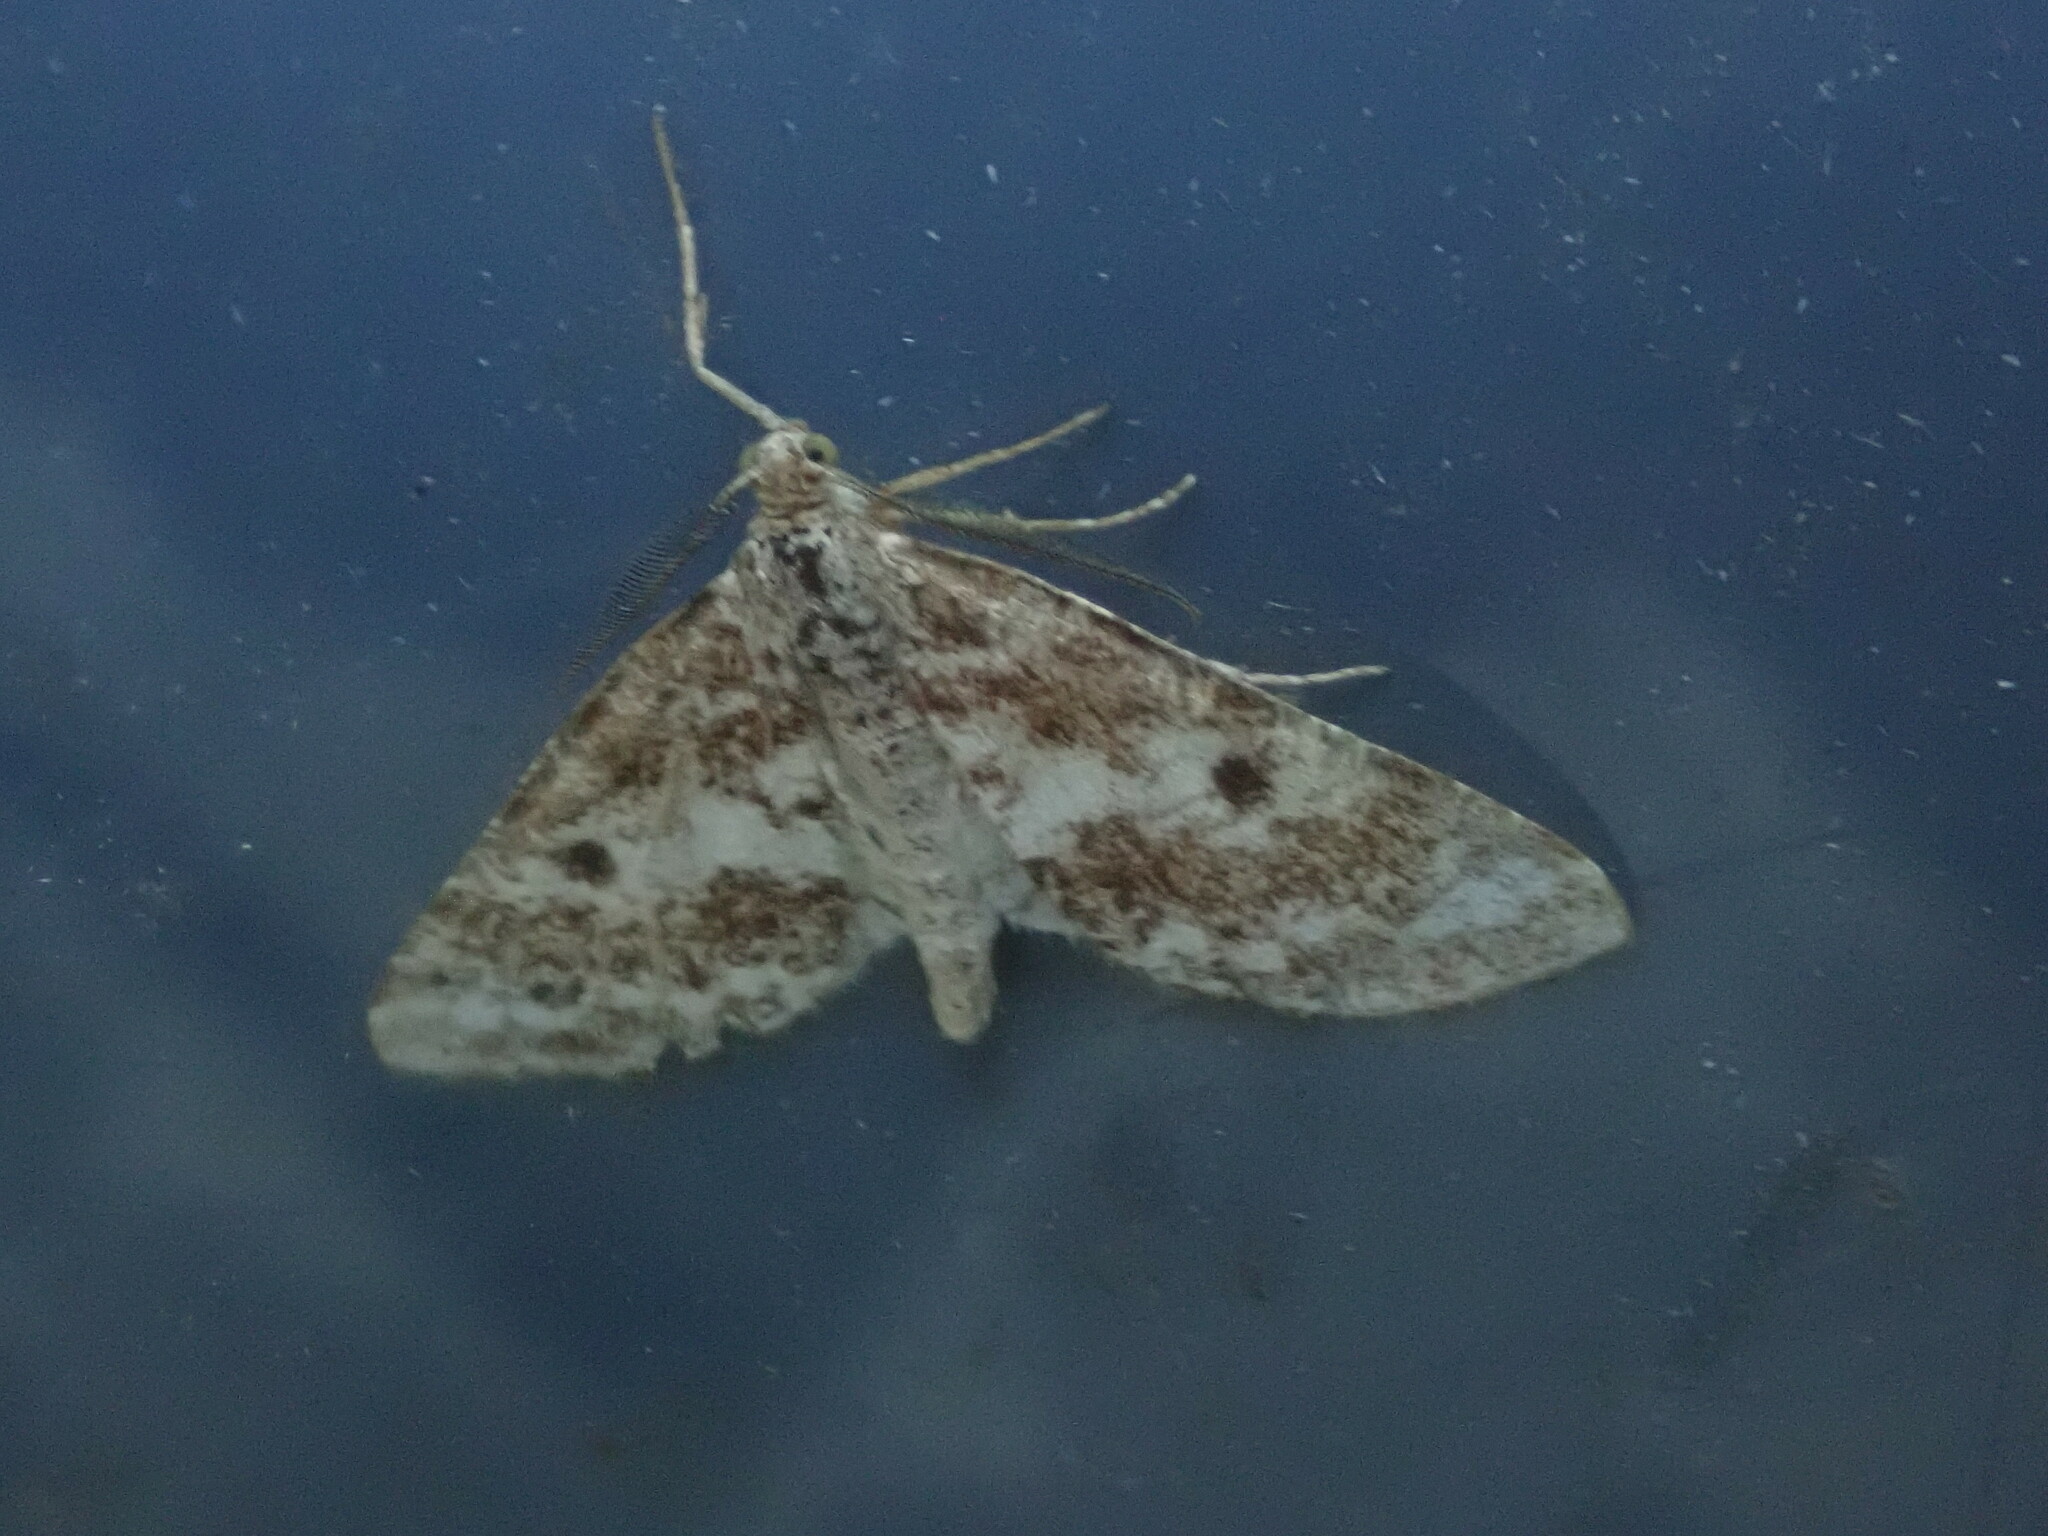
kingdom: Animalia
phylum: Arthropoda
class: Insecta
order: Lepidoptera
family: Geometridae
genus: Eufidonia
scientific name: Eufidonia notataria
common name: Powder moth
